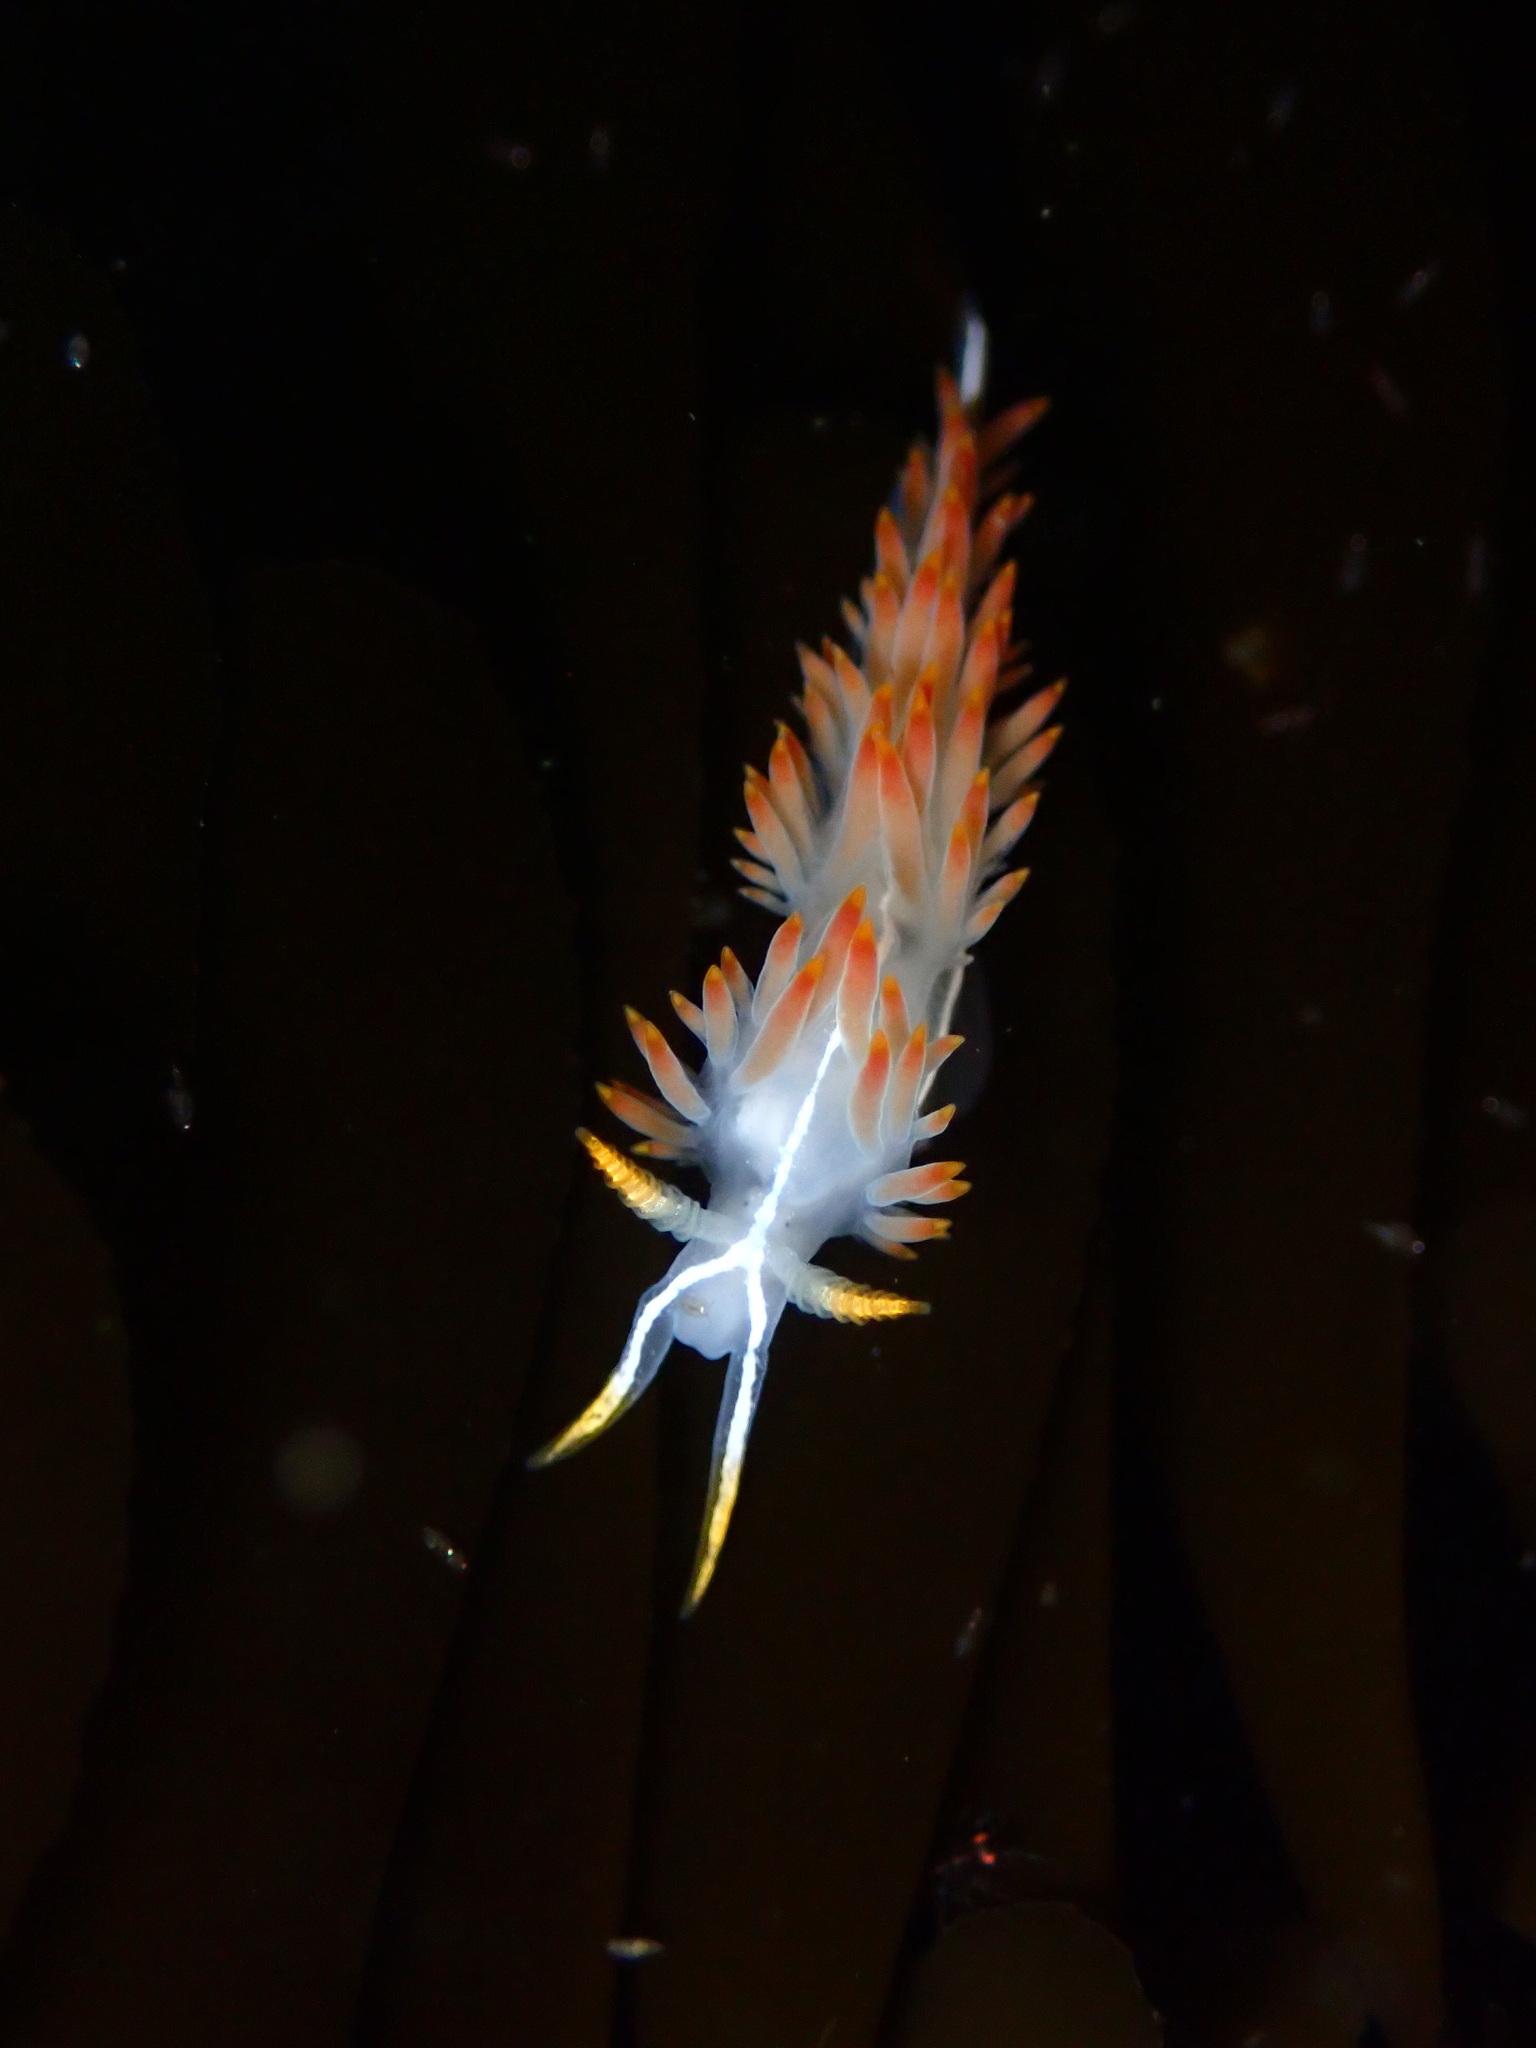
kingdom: Animalia
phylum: Mollusca
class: Gastropoda
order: Nudibranchia
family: Coryphellidae
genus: Coryphella
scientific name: Coryphella trilineata
